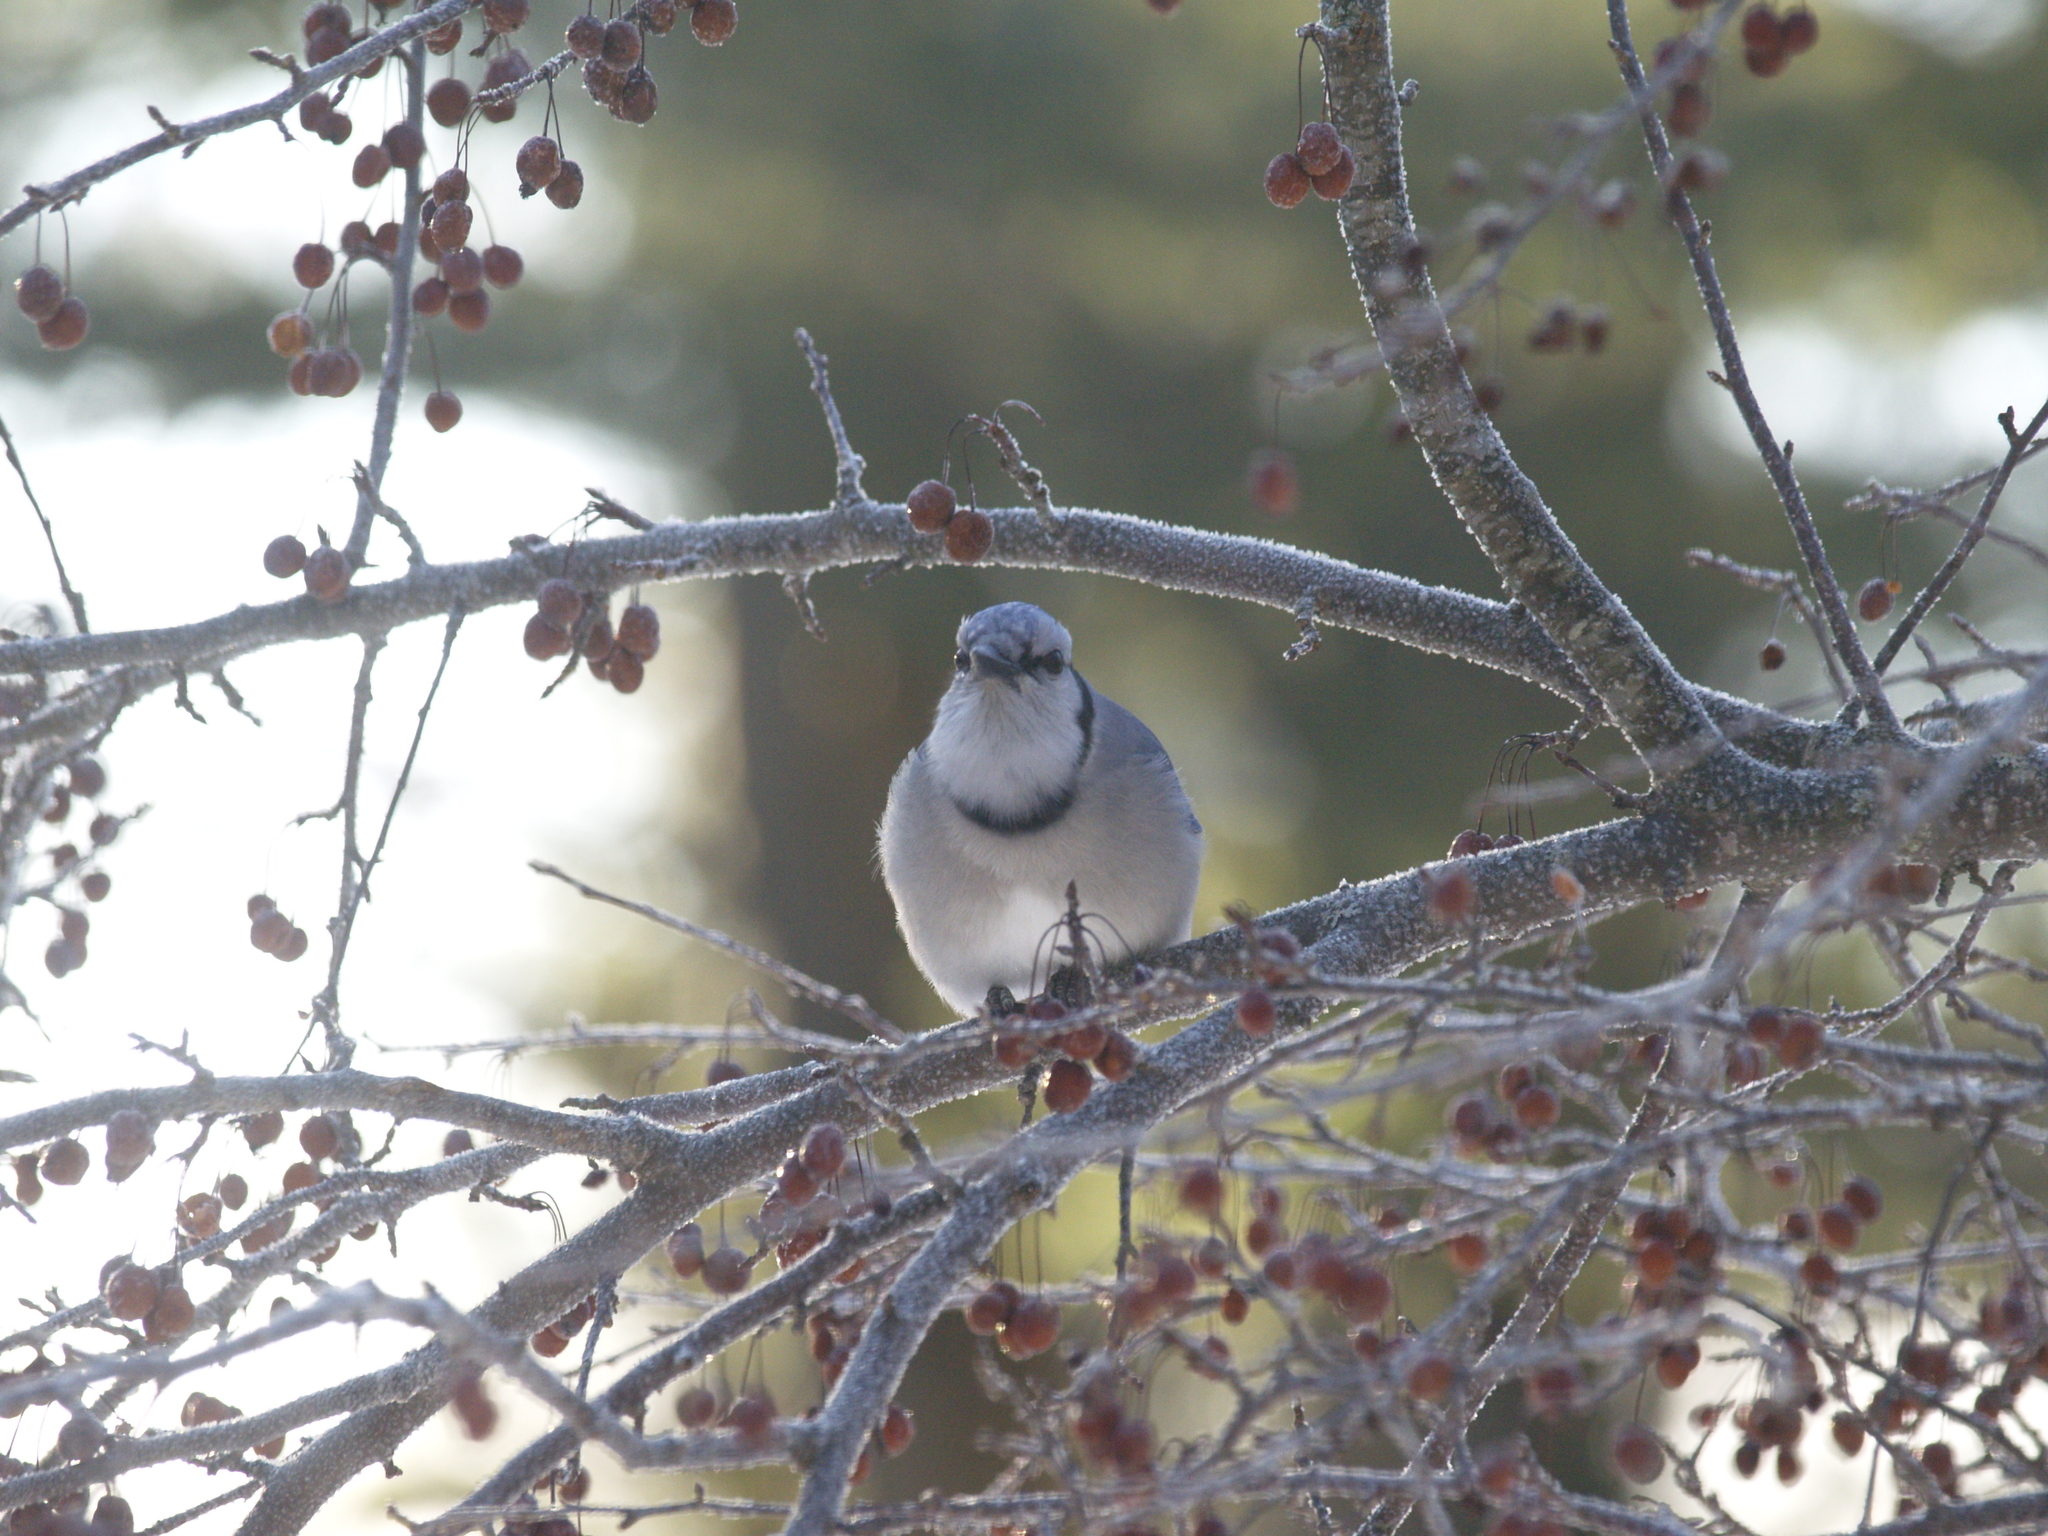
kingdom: Animalia
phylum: Chordata
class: Aves
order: Passeriformes
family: Corvidae
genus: Cyanocitta
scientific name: Cyanocitta cristata
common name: Blue jay
